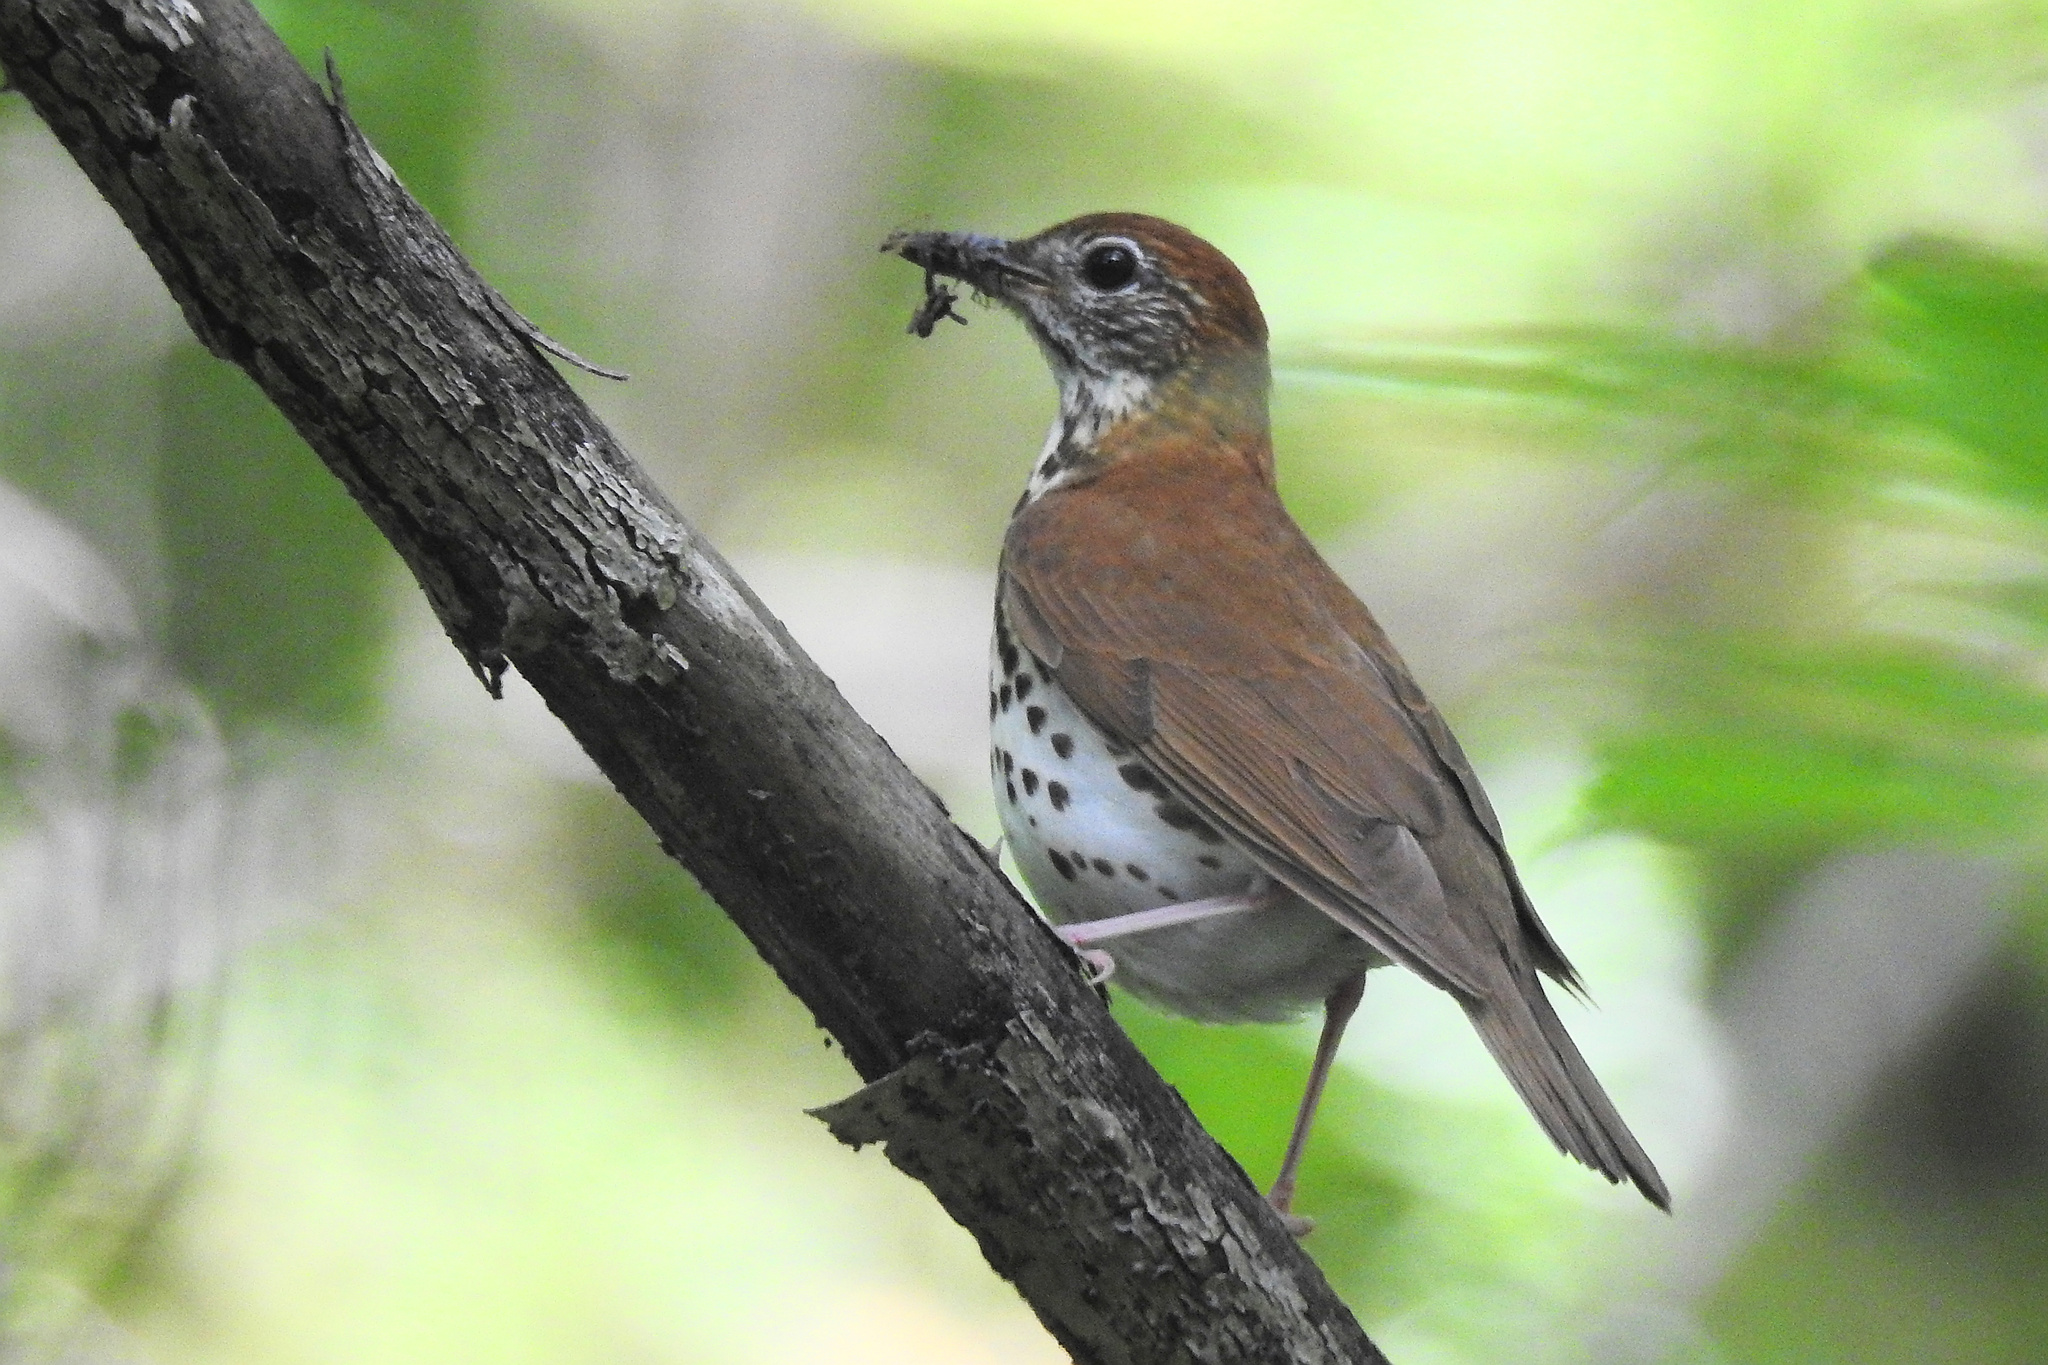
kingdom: Animalia
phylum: Chordata
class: Aves
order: Passeriformes
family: Turdidae
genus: Hylocichla
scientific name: Hylocichla mustelina
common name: Wood thrush
